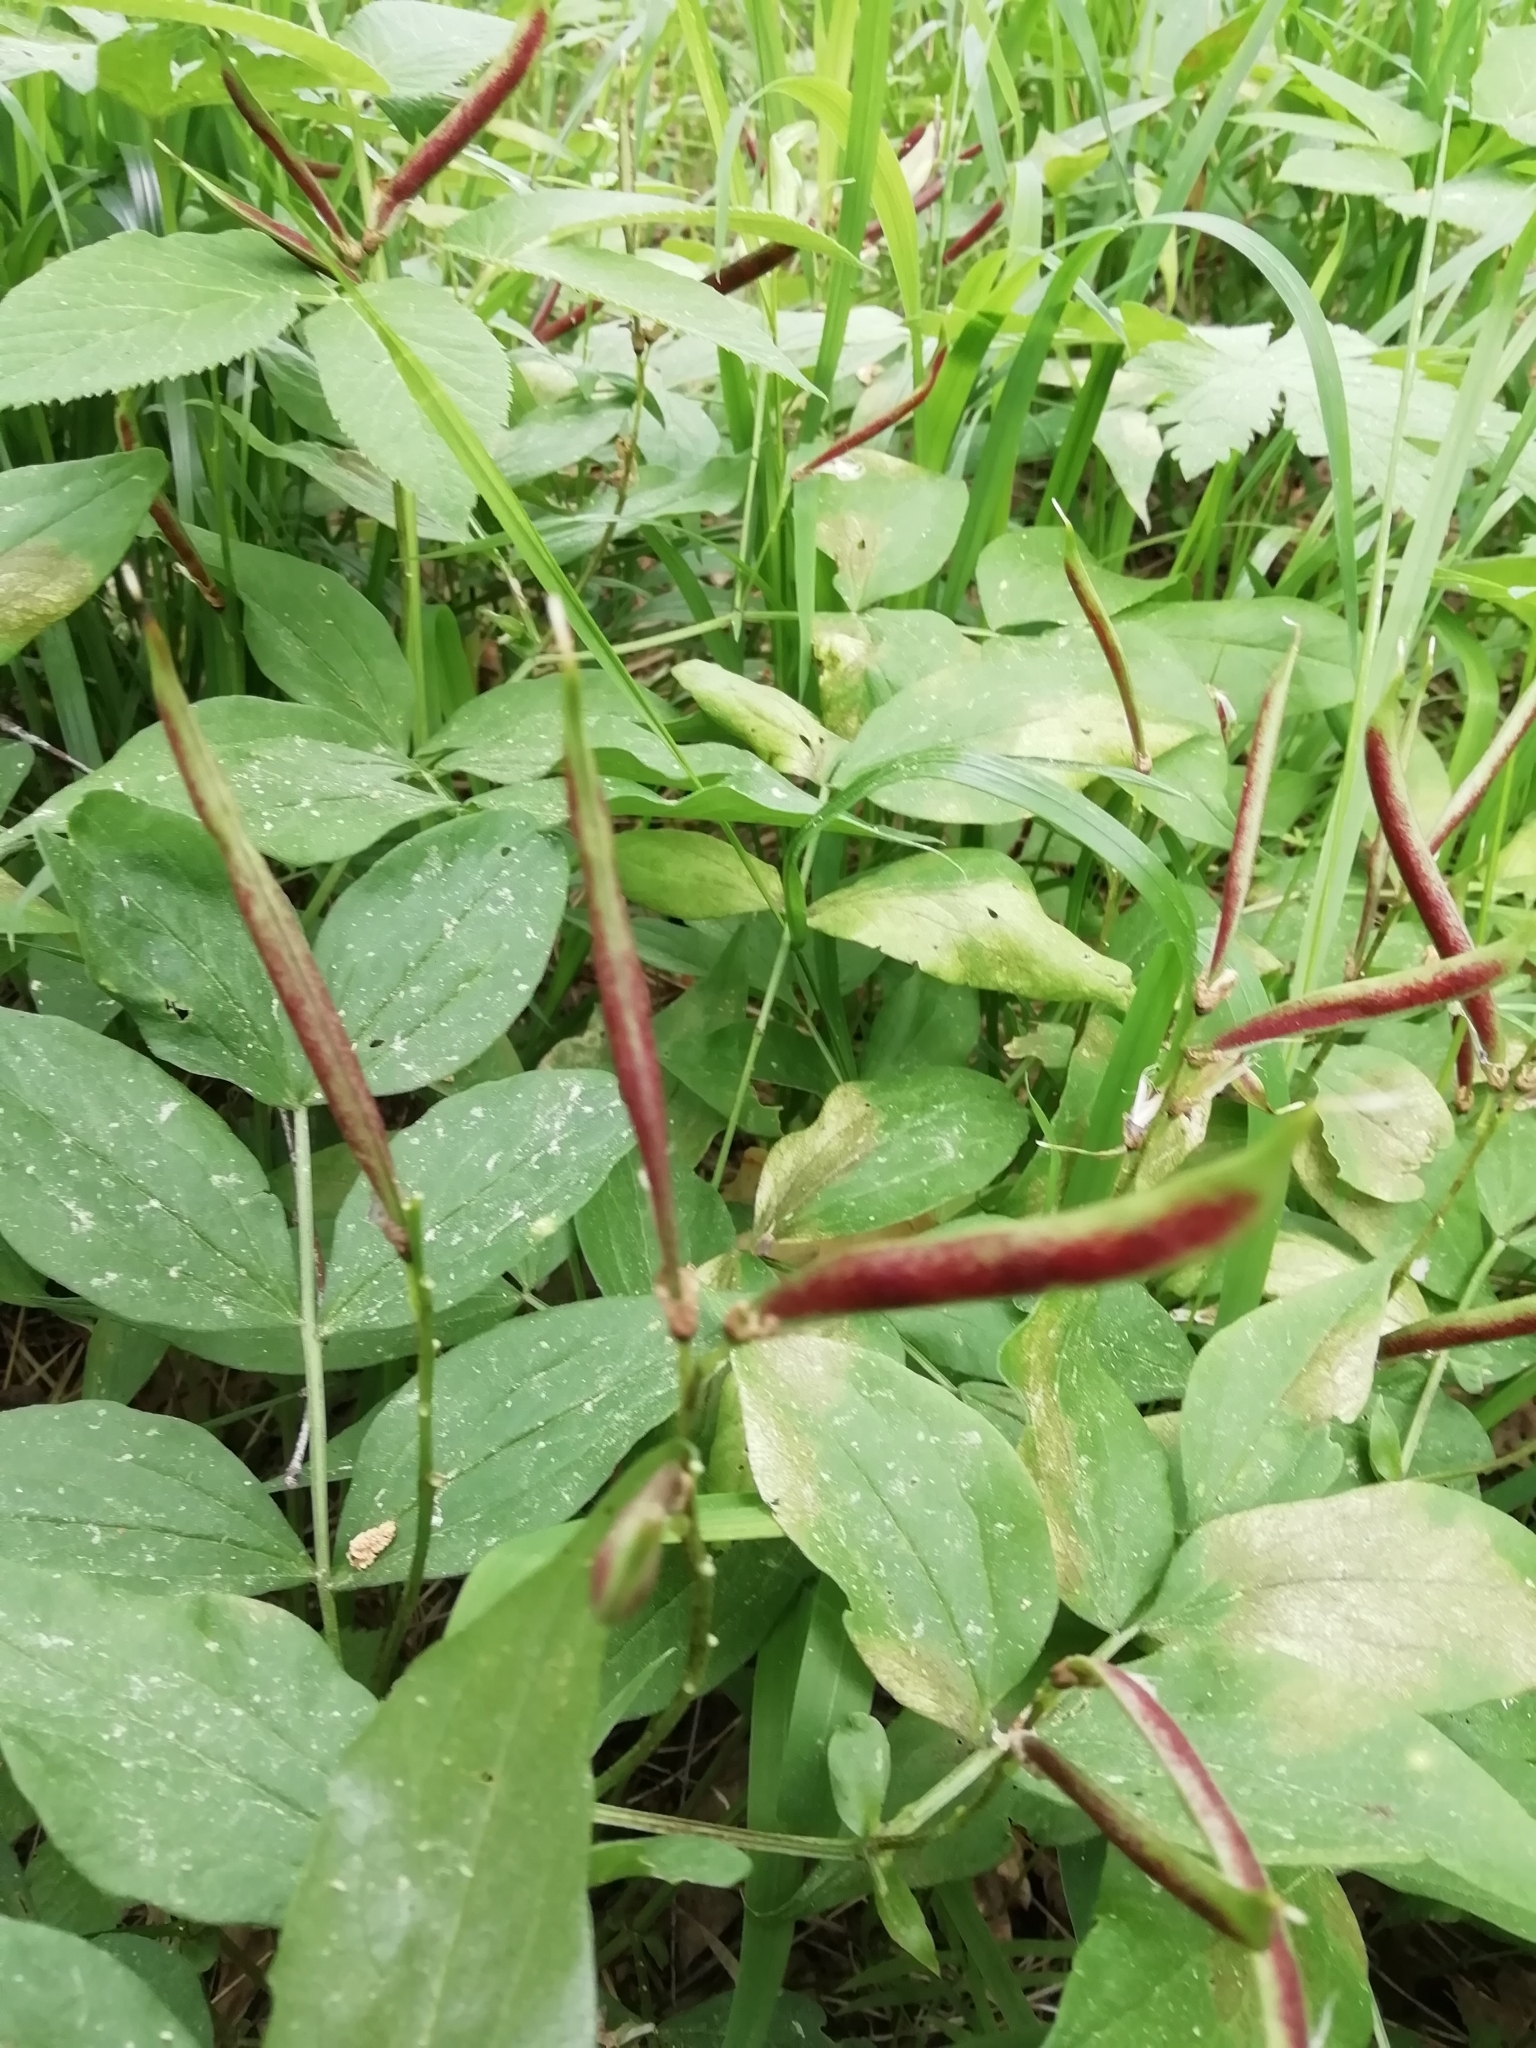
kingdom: Plantae
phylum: Tracheophyta
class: Magnoliopsida
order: Fabales
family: Fabaceae
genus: Lathyrus
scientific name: Lathyrus vernus
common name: Spring pea
